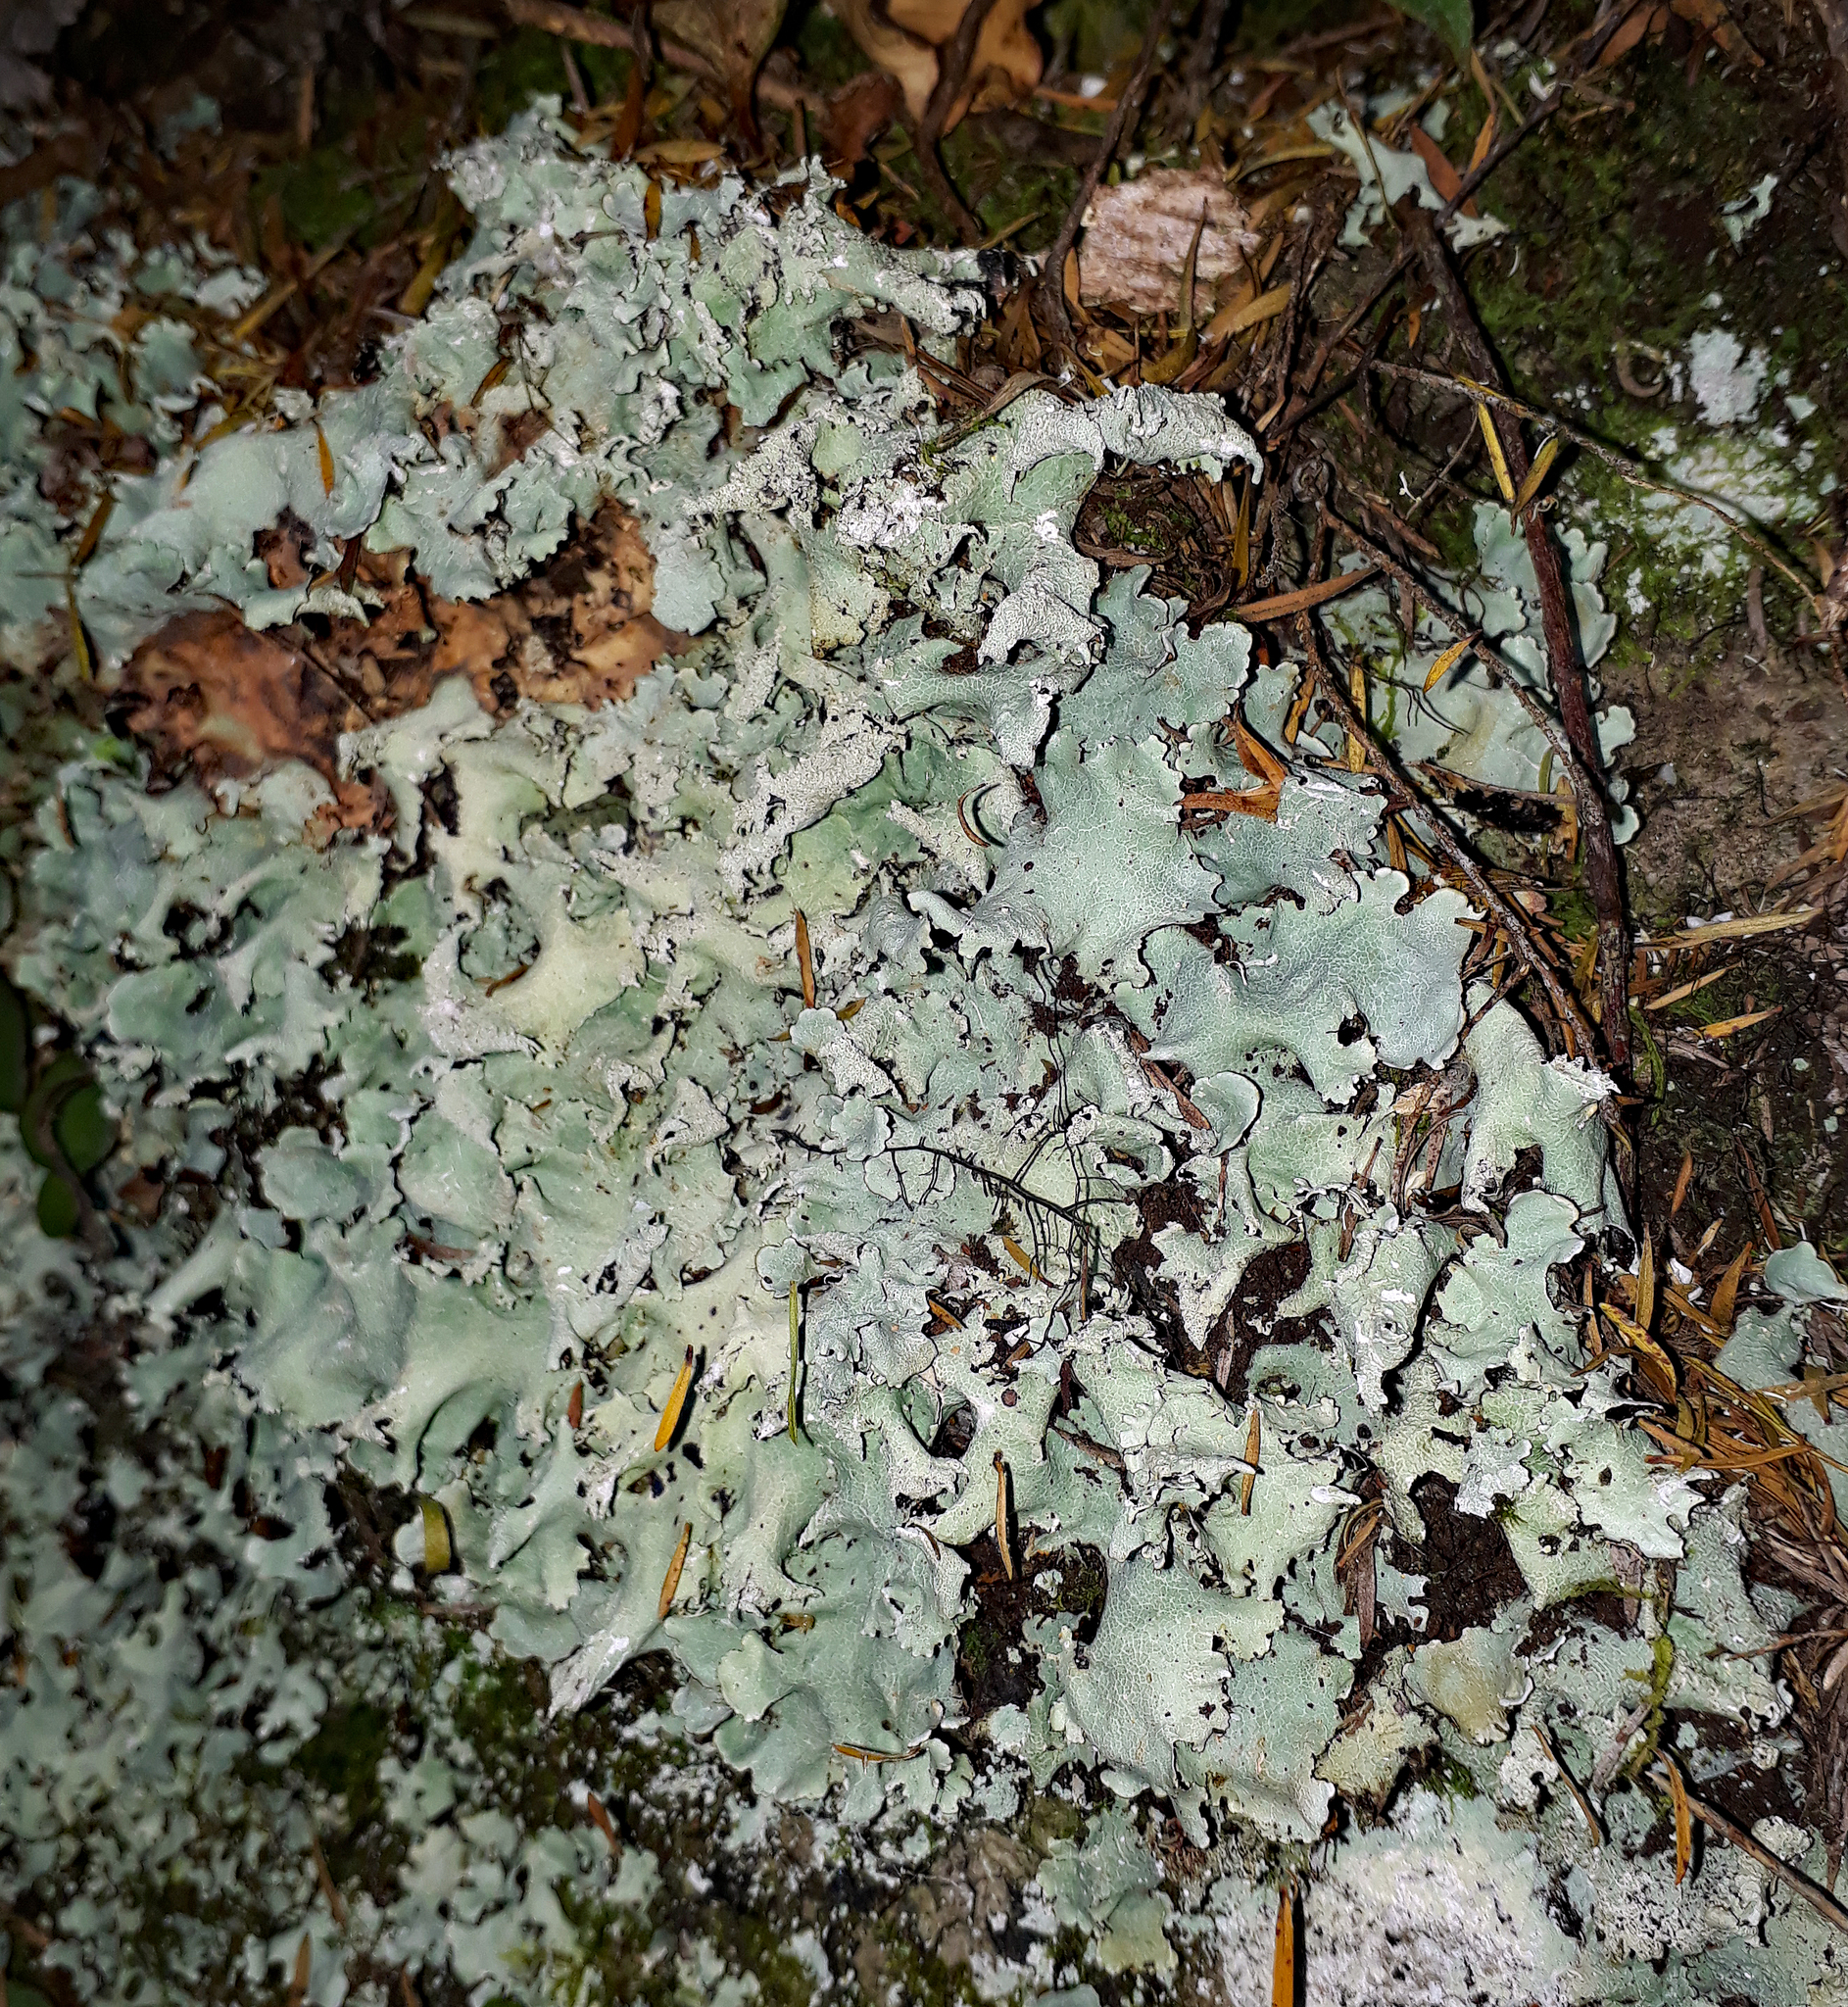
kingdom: Fungi
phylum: Ascomycota
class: Lecanoromycetes
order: Lecanorales
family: Parmeliaceae
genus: Parmotrema
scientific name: Parmotrema austrocetratum
